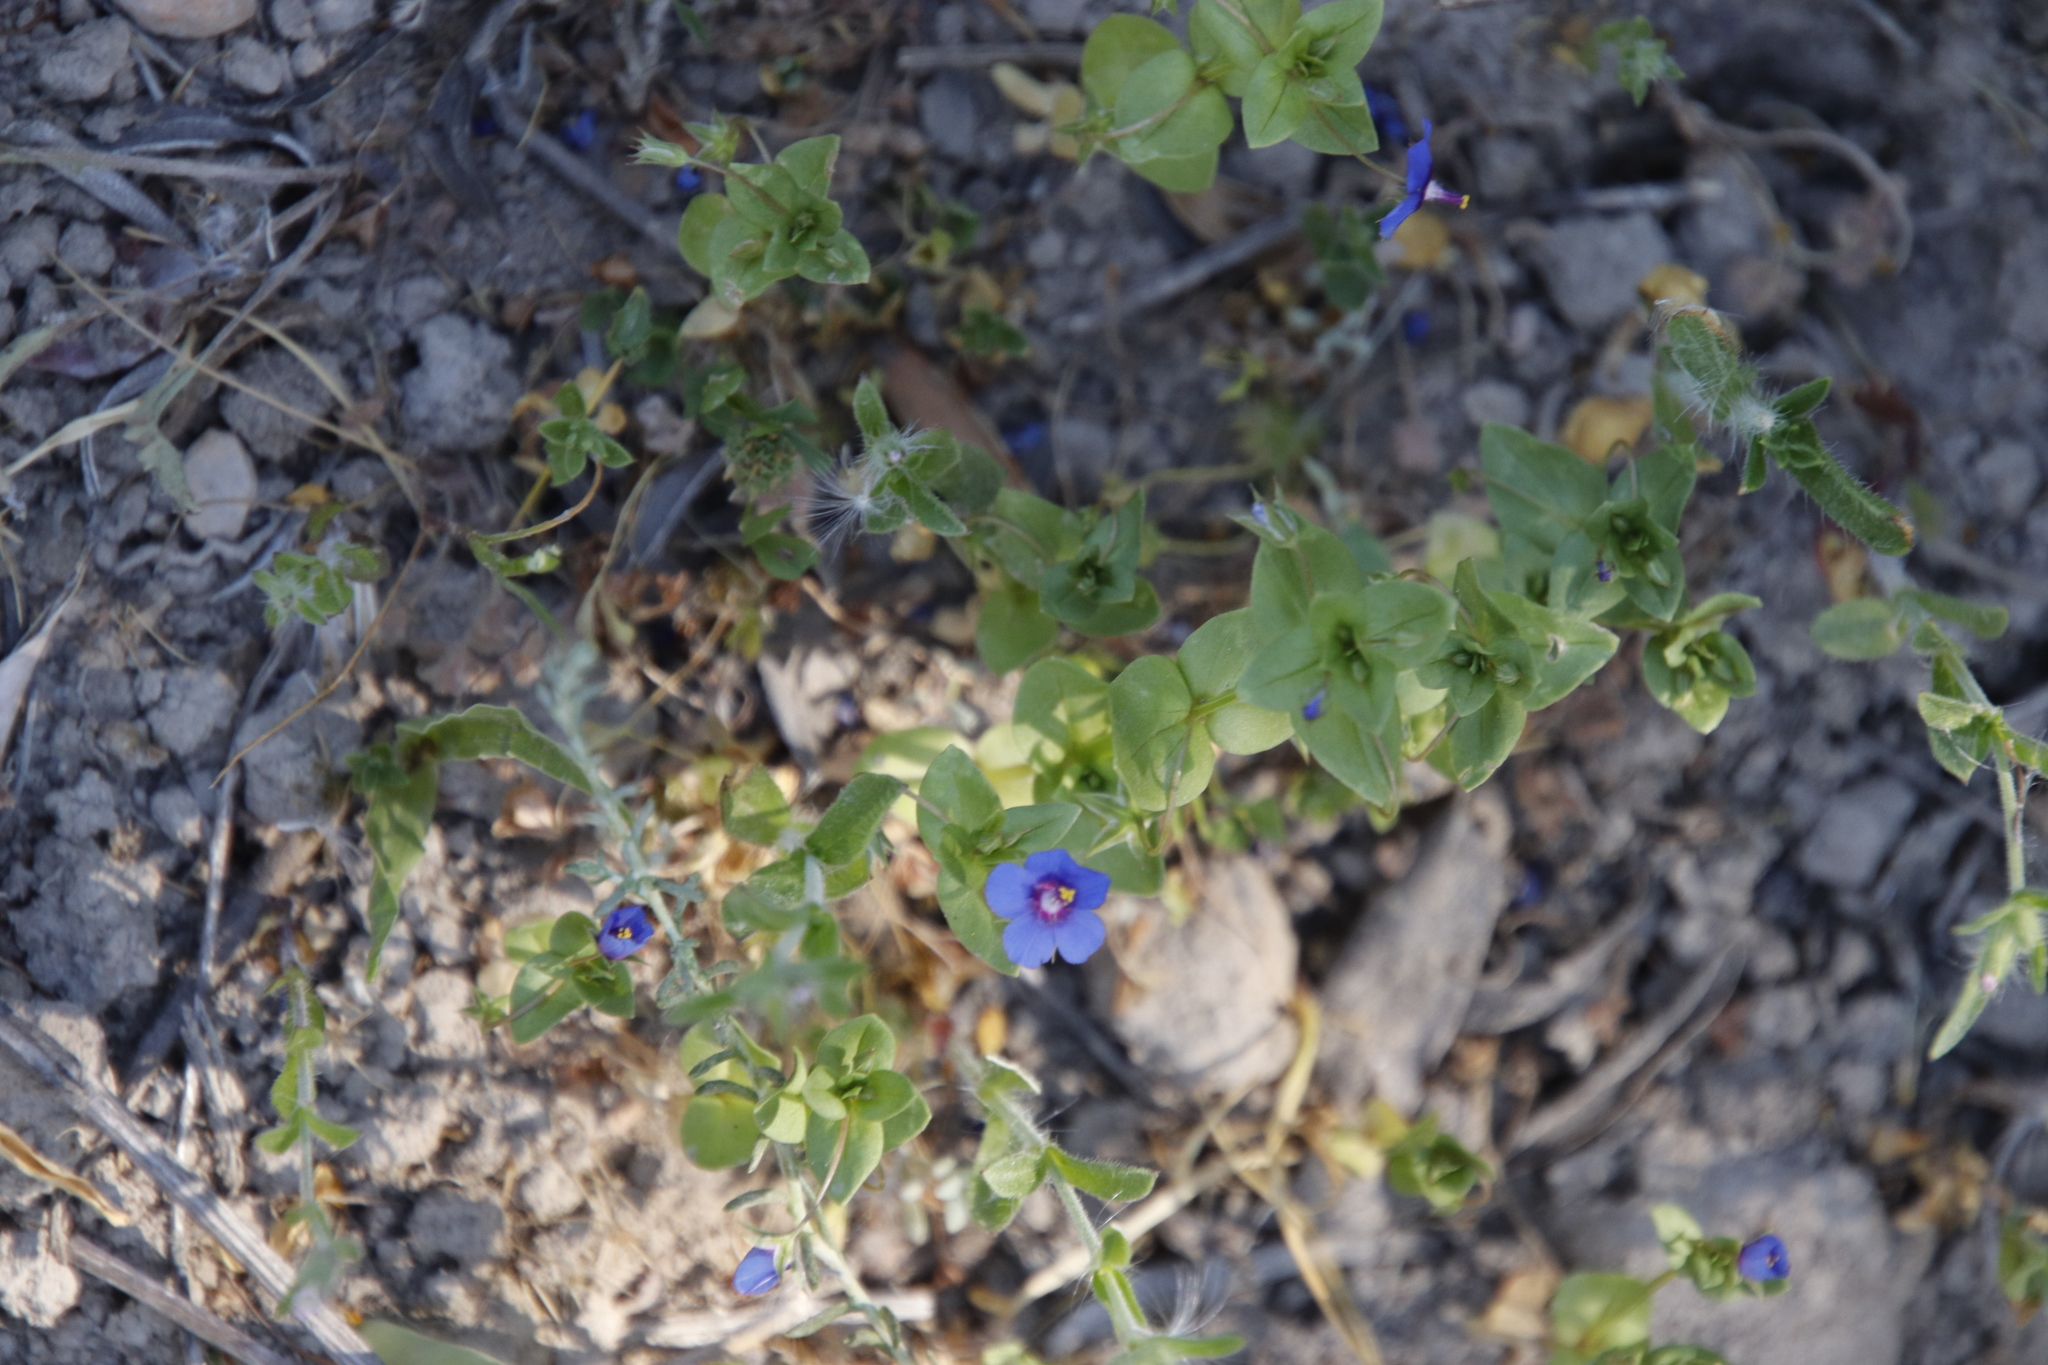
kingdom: Plantae
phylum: Tracheophyta
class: Magnoliopsida
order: Ericales
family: Primulaceae
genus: Lysimachia
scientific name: Lysimachia loeflingii
